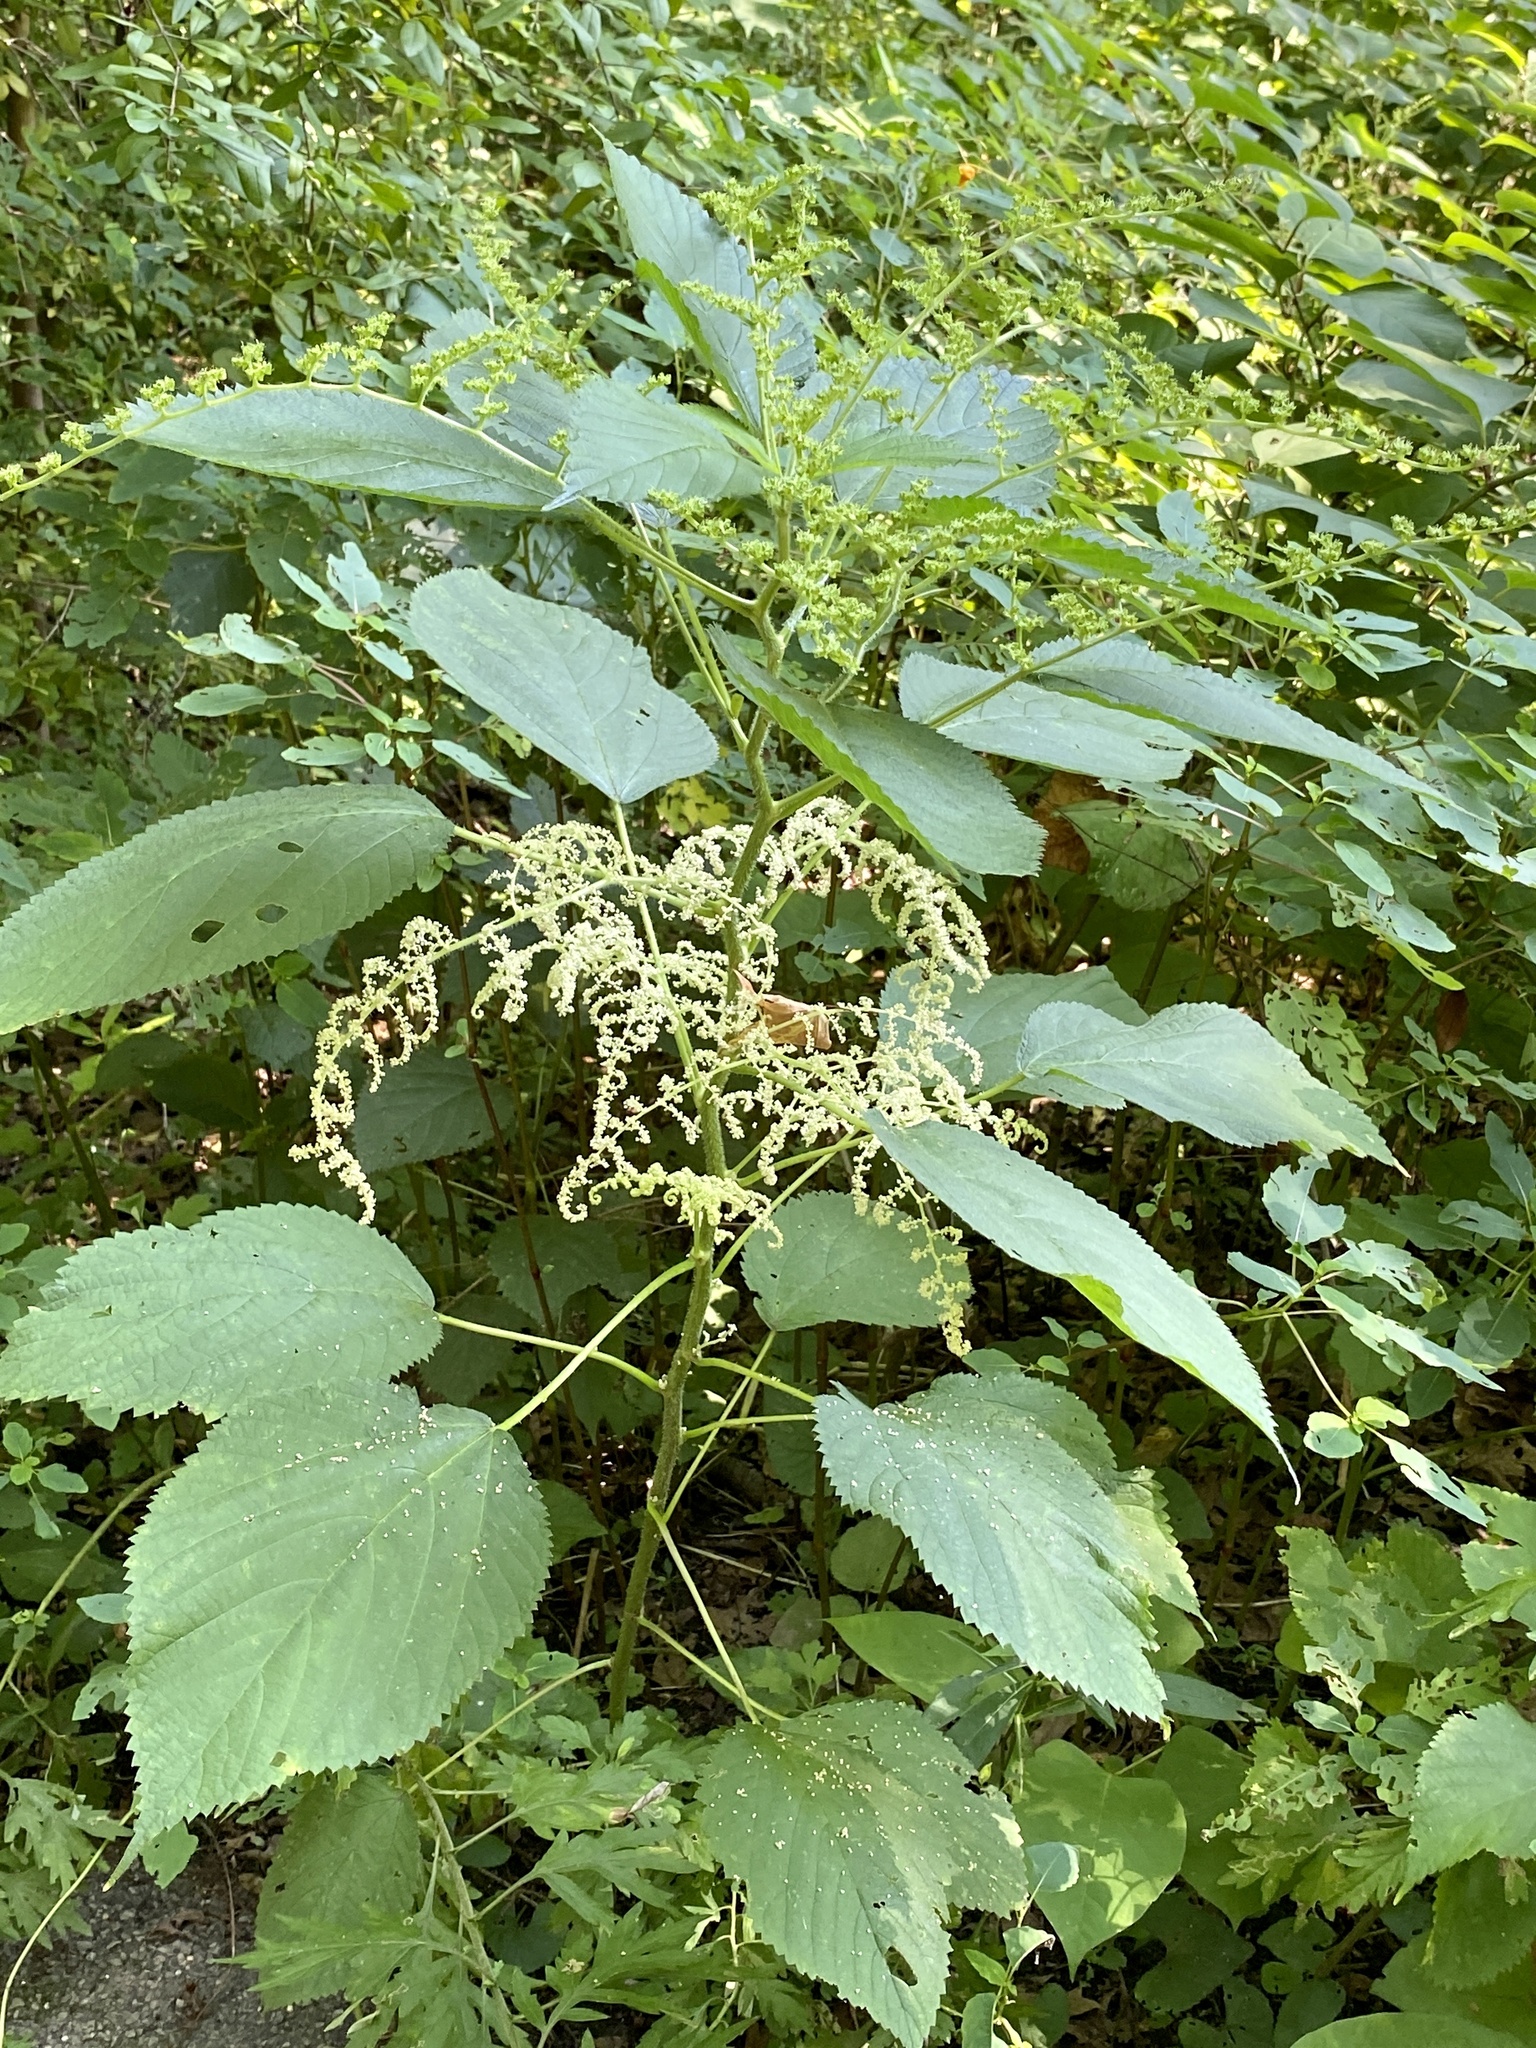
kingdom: Plantae
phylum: Tracheophyta
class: Magnoliopsida
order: Rosales
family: Urticaceae
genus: Laportea
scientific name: Laportea canadensis
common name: Canada nettle
